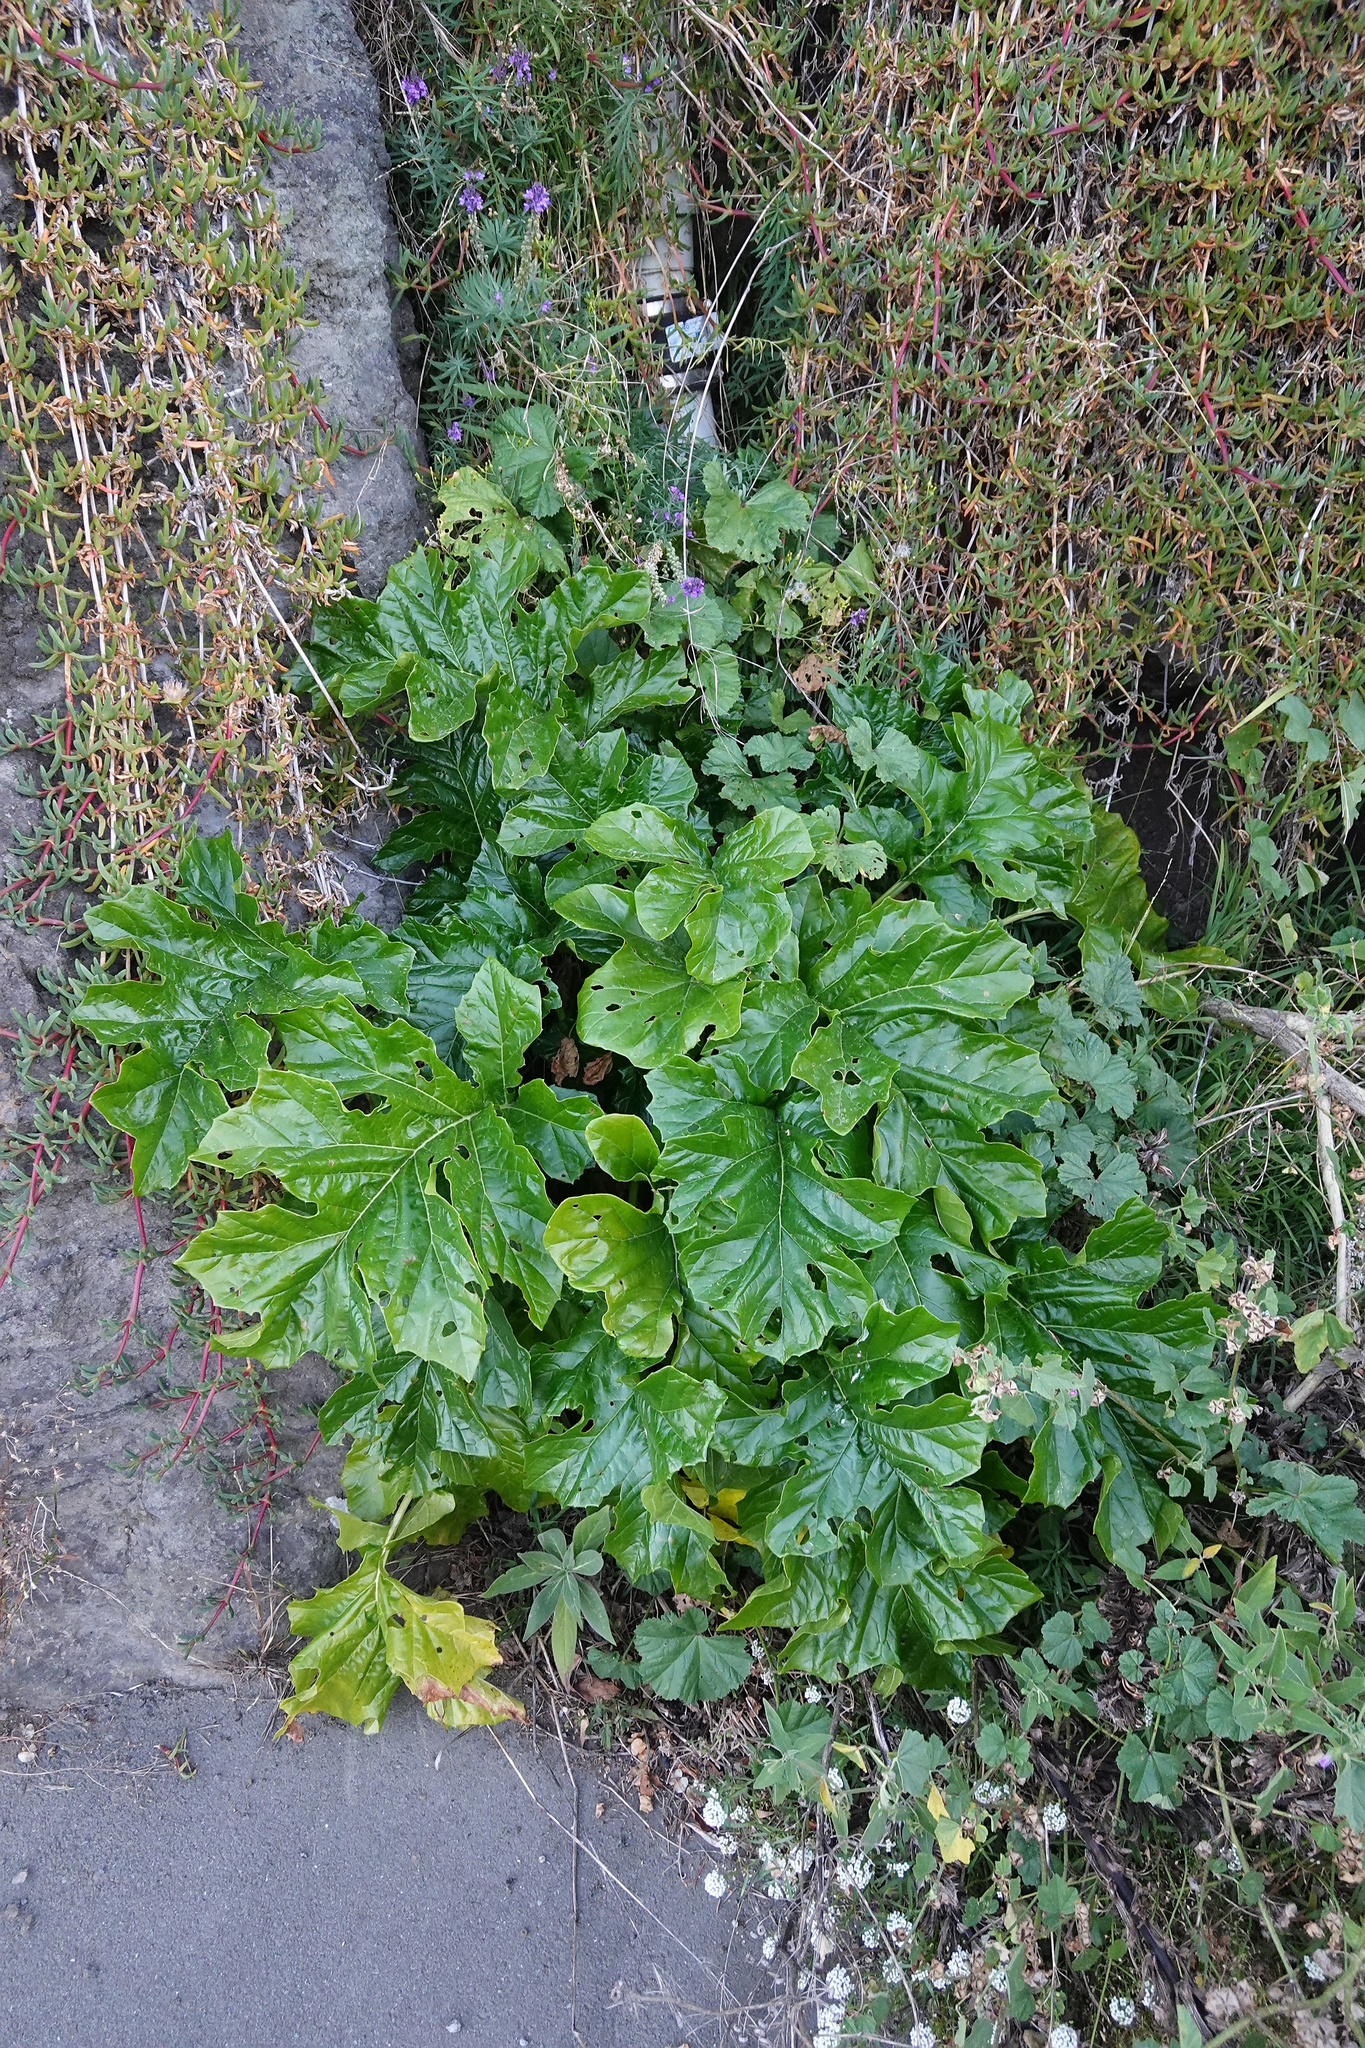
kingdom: Plantae
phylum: Tracheophyta
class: Magnoliopsida
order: Lamiales
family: Acanthaceae
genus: Acanthus
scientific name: Acanthus mollis
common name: Bear's-breech
